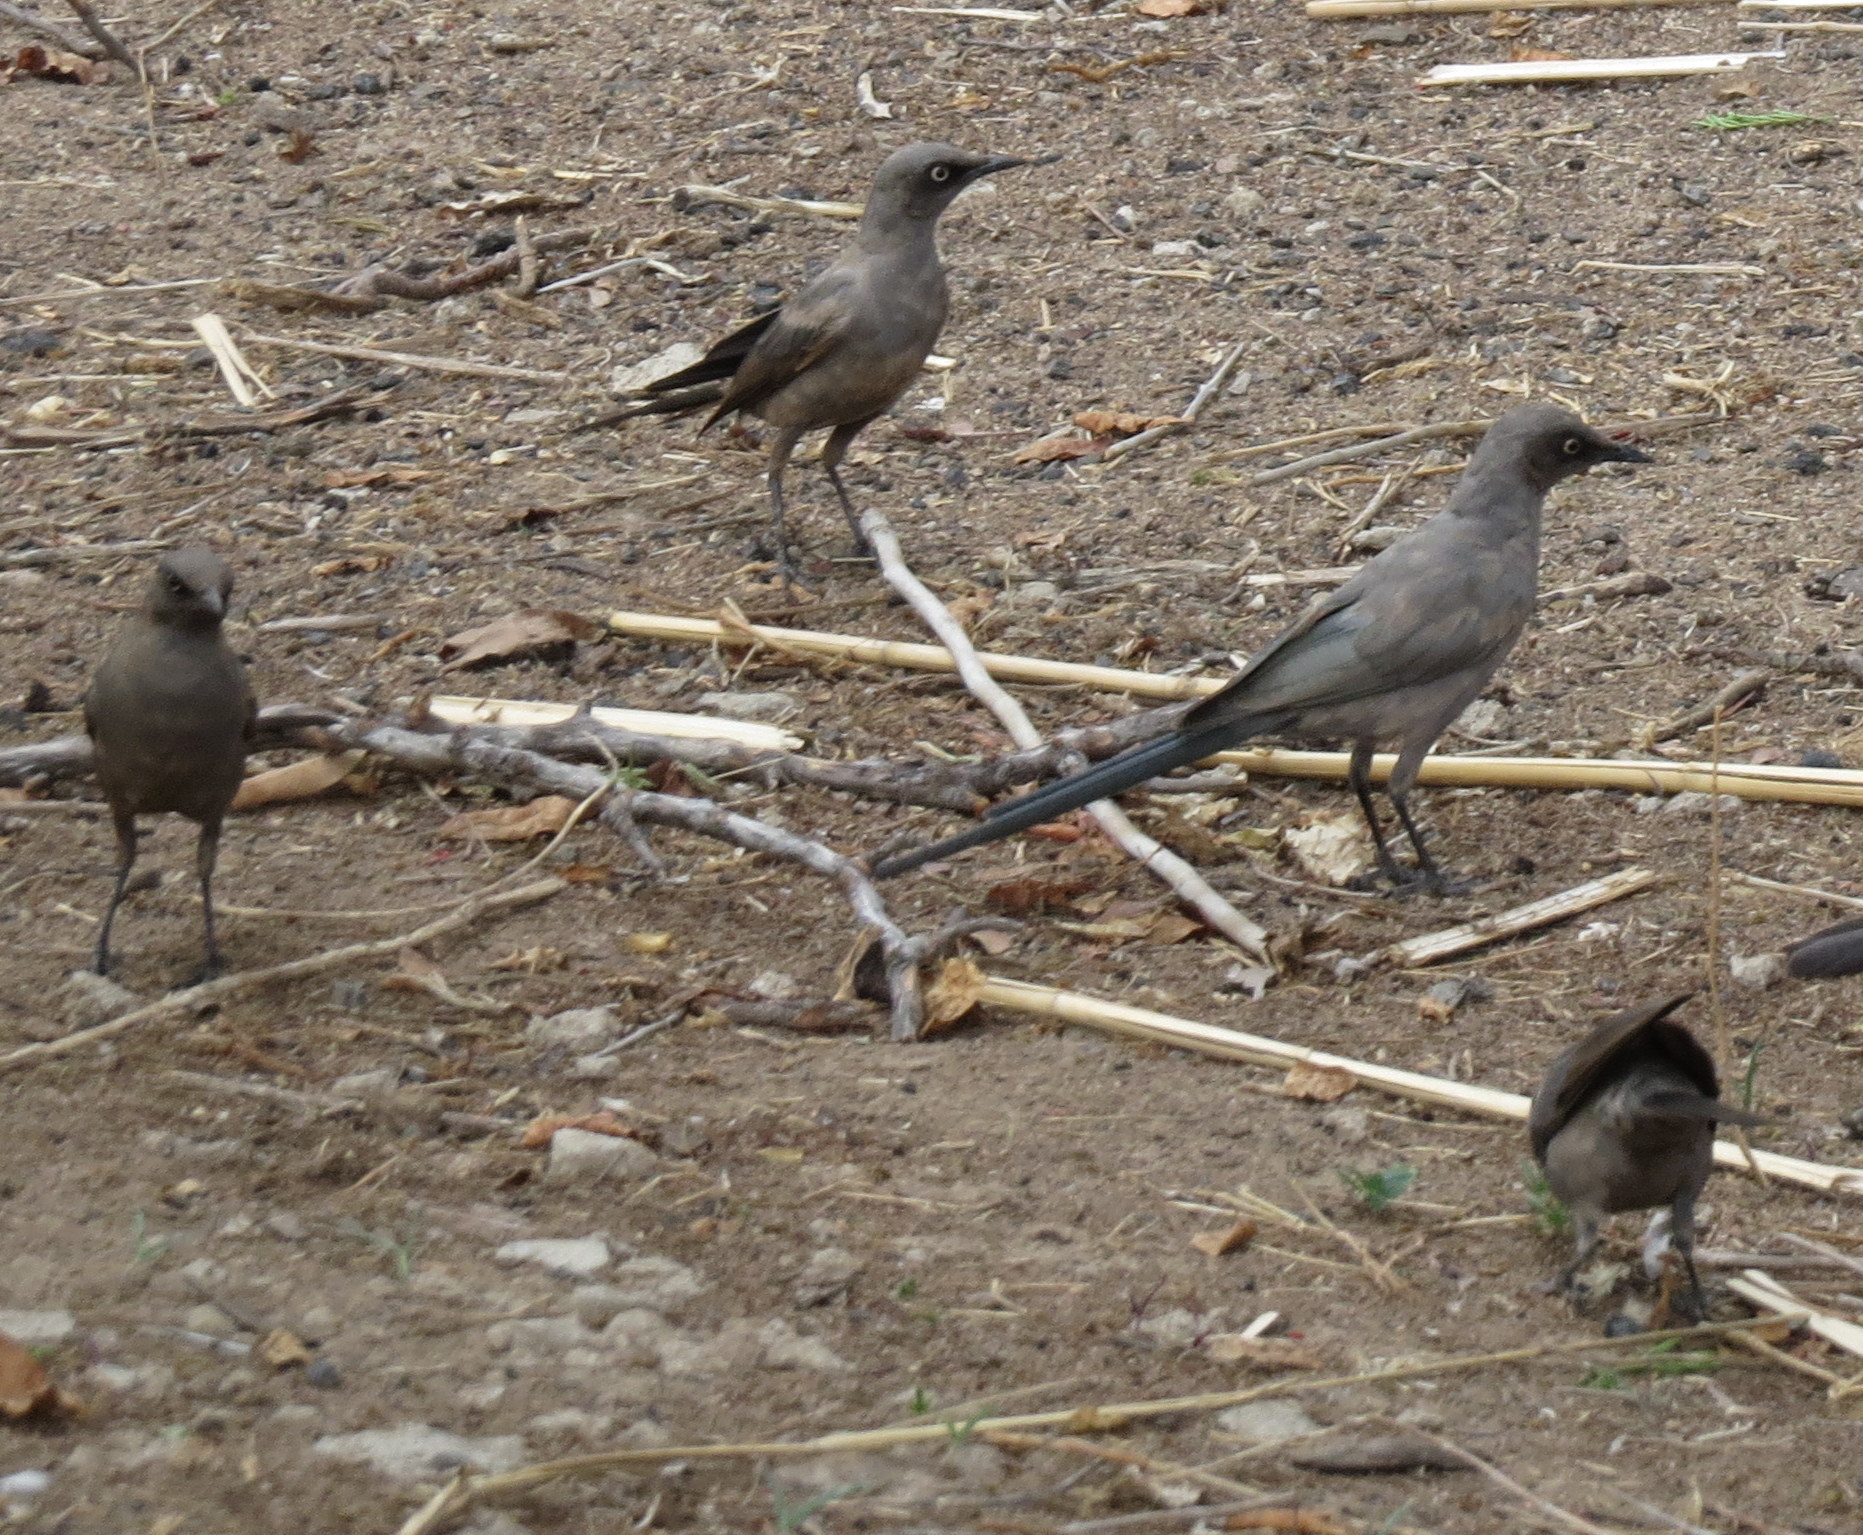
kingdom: Animalia
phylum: Chordata
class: Aves
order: Passeriformes
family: Sturnidae
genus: Lamprotornis
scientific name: Lamprotornis unicolor
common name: Ashy starling
